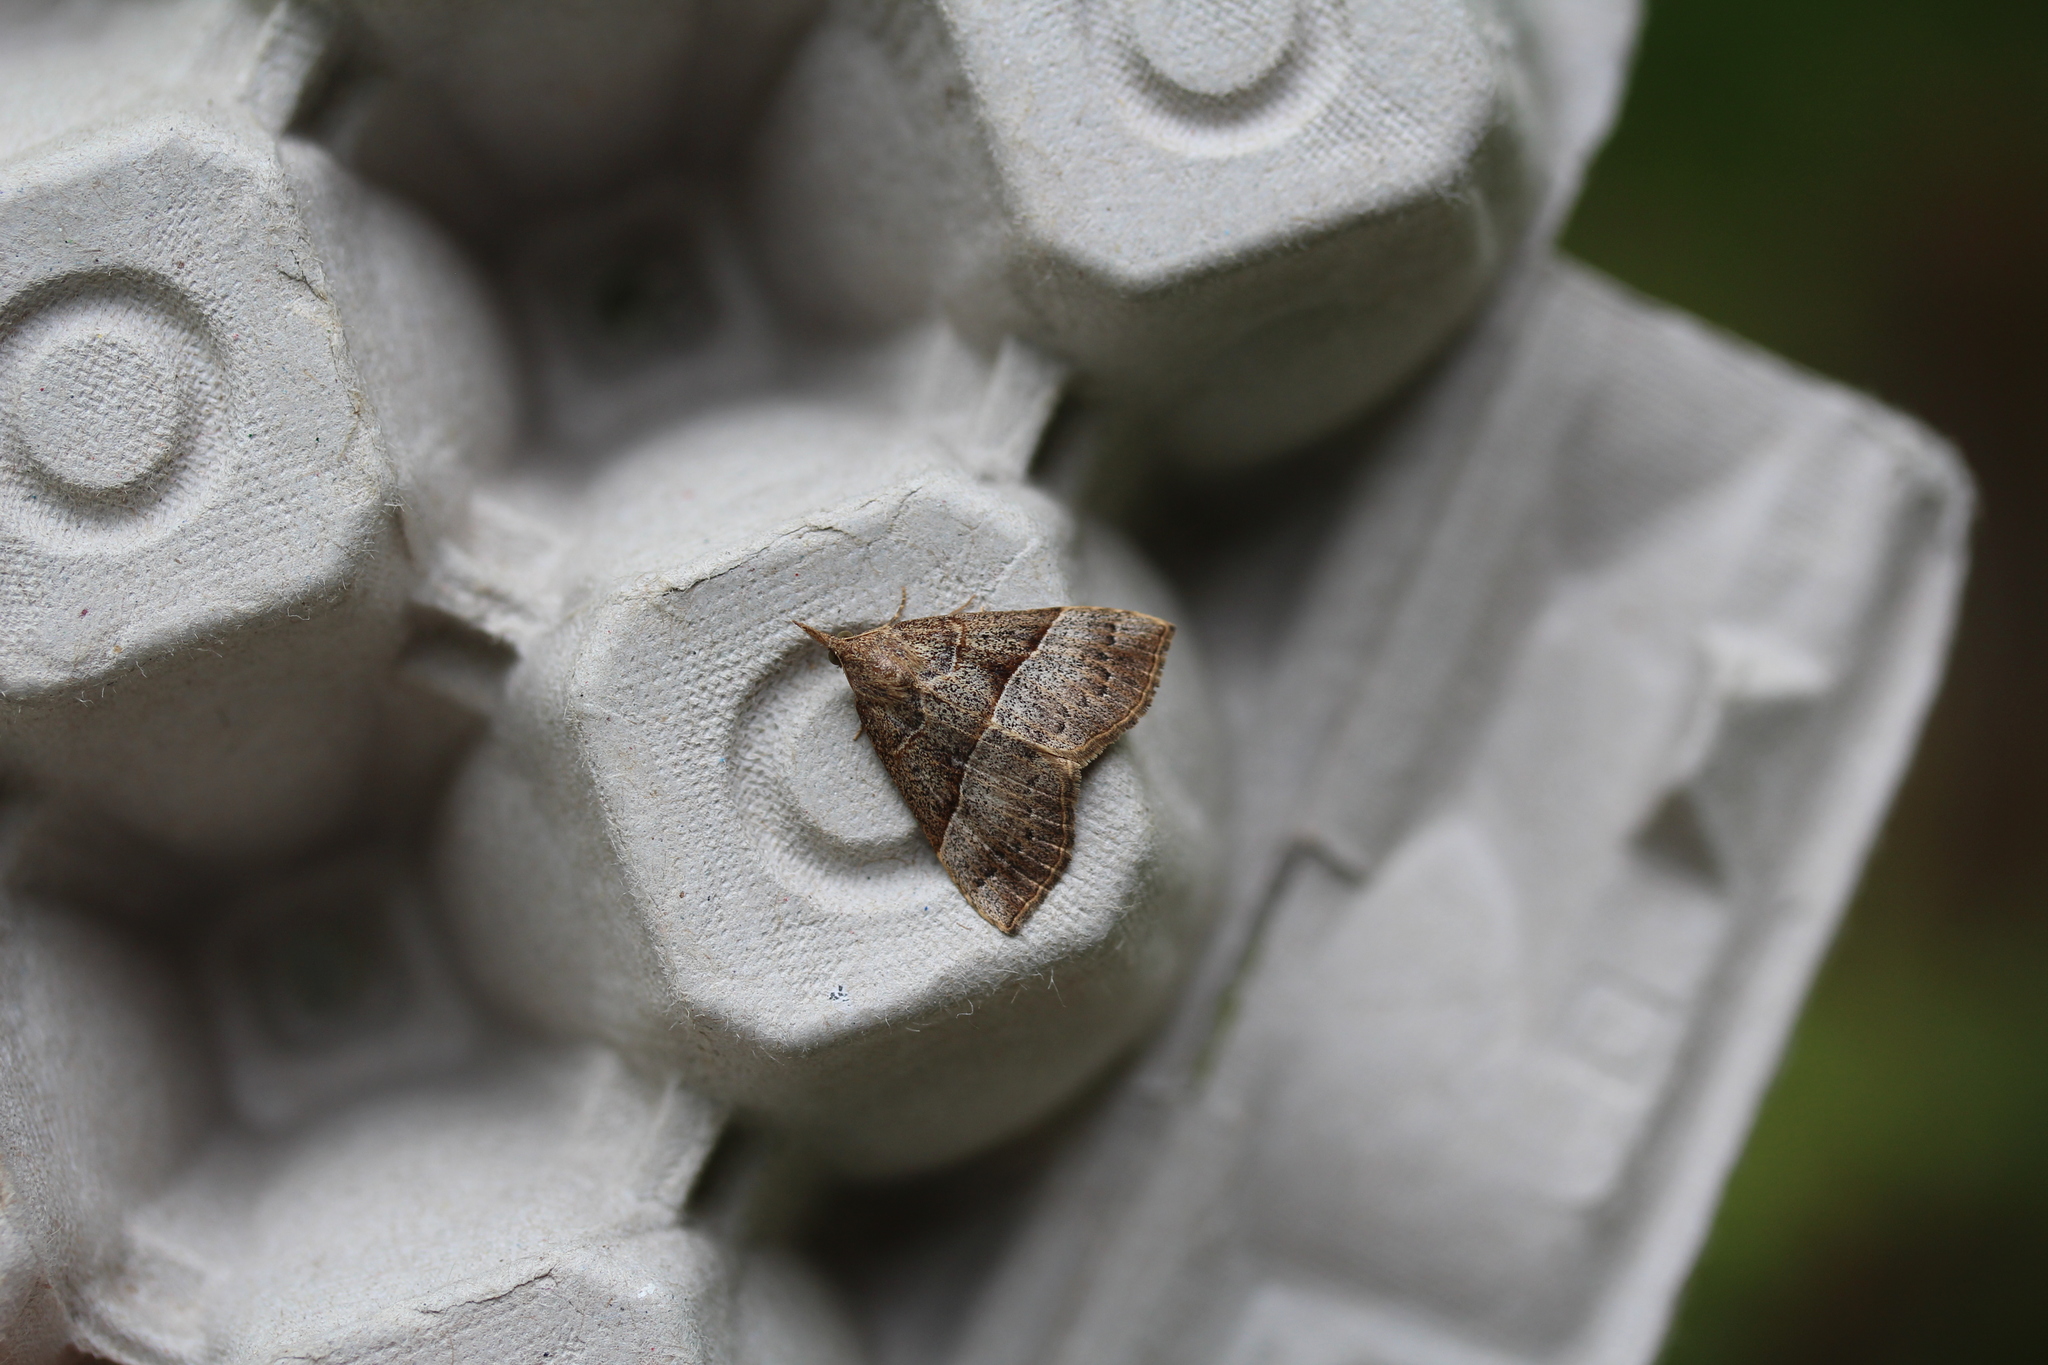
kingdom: Animalia
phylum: Arthropoda
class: Insecta
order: Lepidoptera
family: Erebidae
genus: Hypena
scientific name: Hypena deceptalis
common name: Deceptive snout
